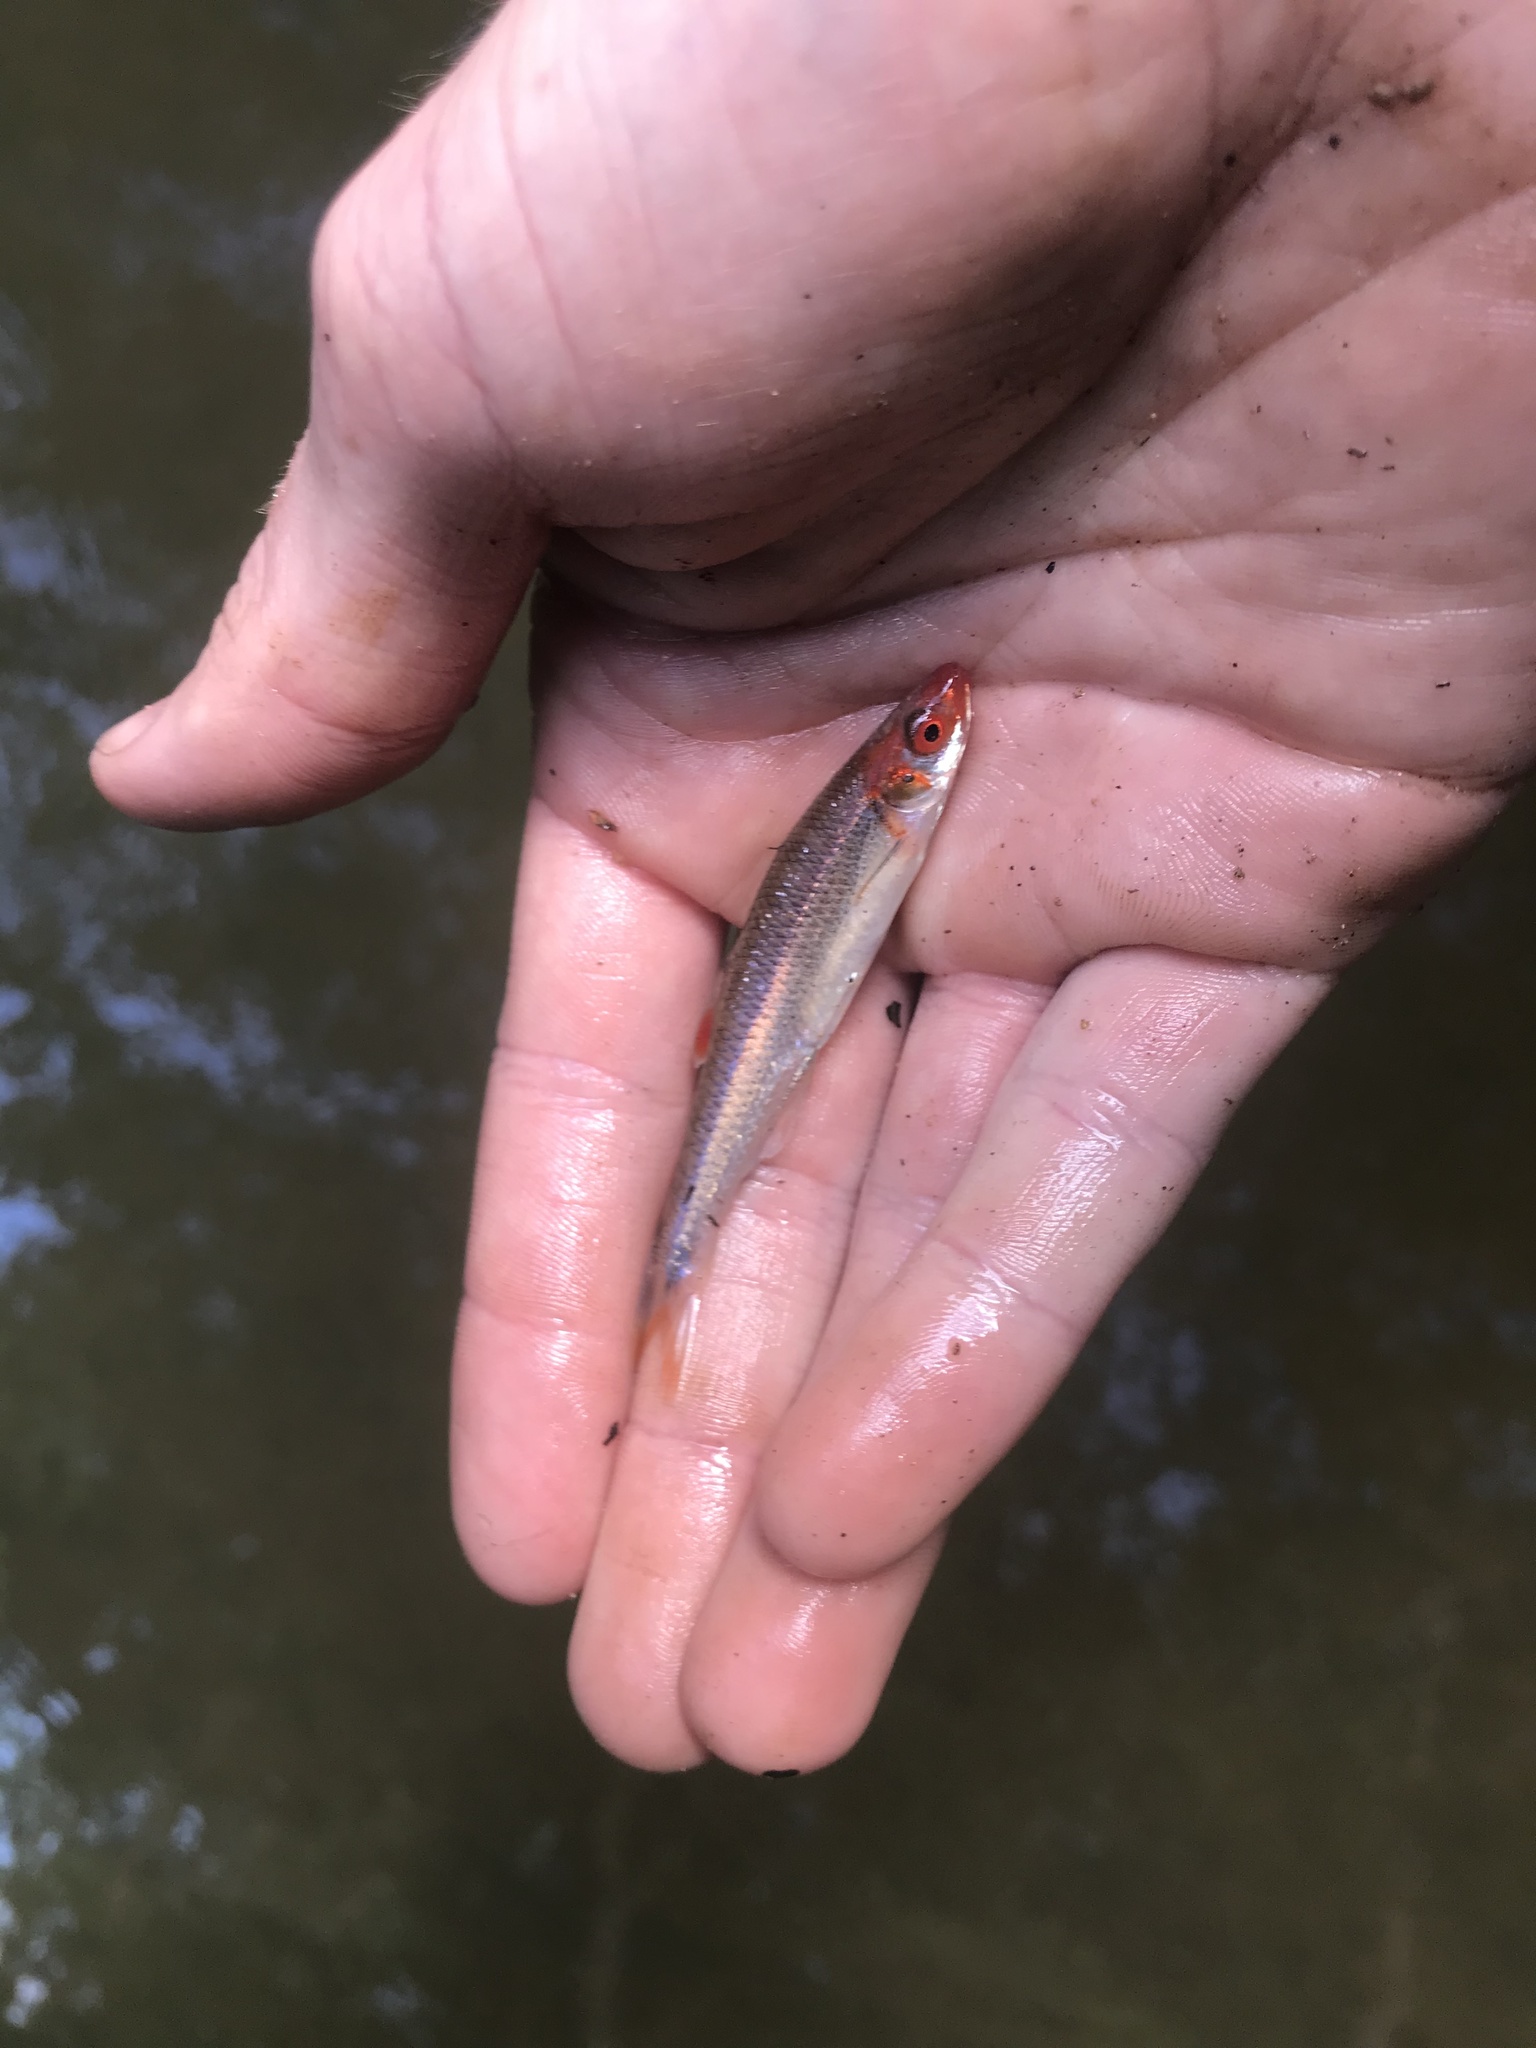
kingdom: Animalia
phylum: Chordata
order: Cypriniformes
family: Cyprinidae
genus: Lythrurus
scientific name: Lythrurus matutinus
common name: Pinewoods shiner
